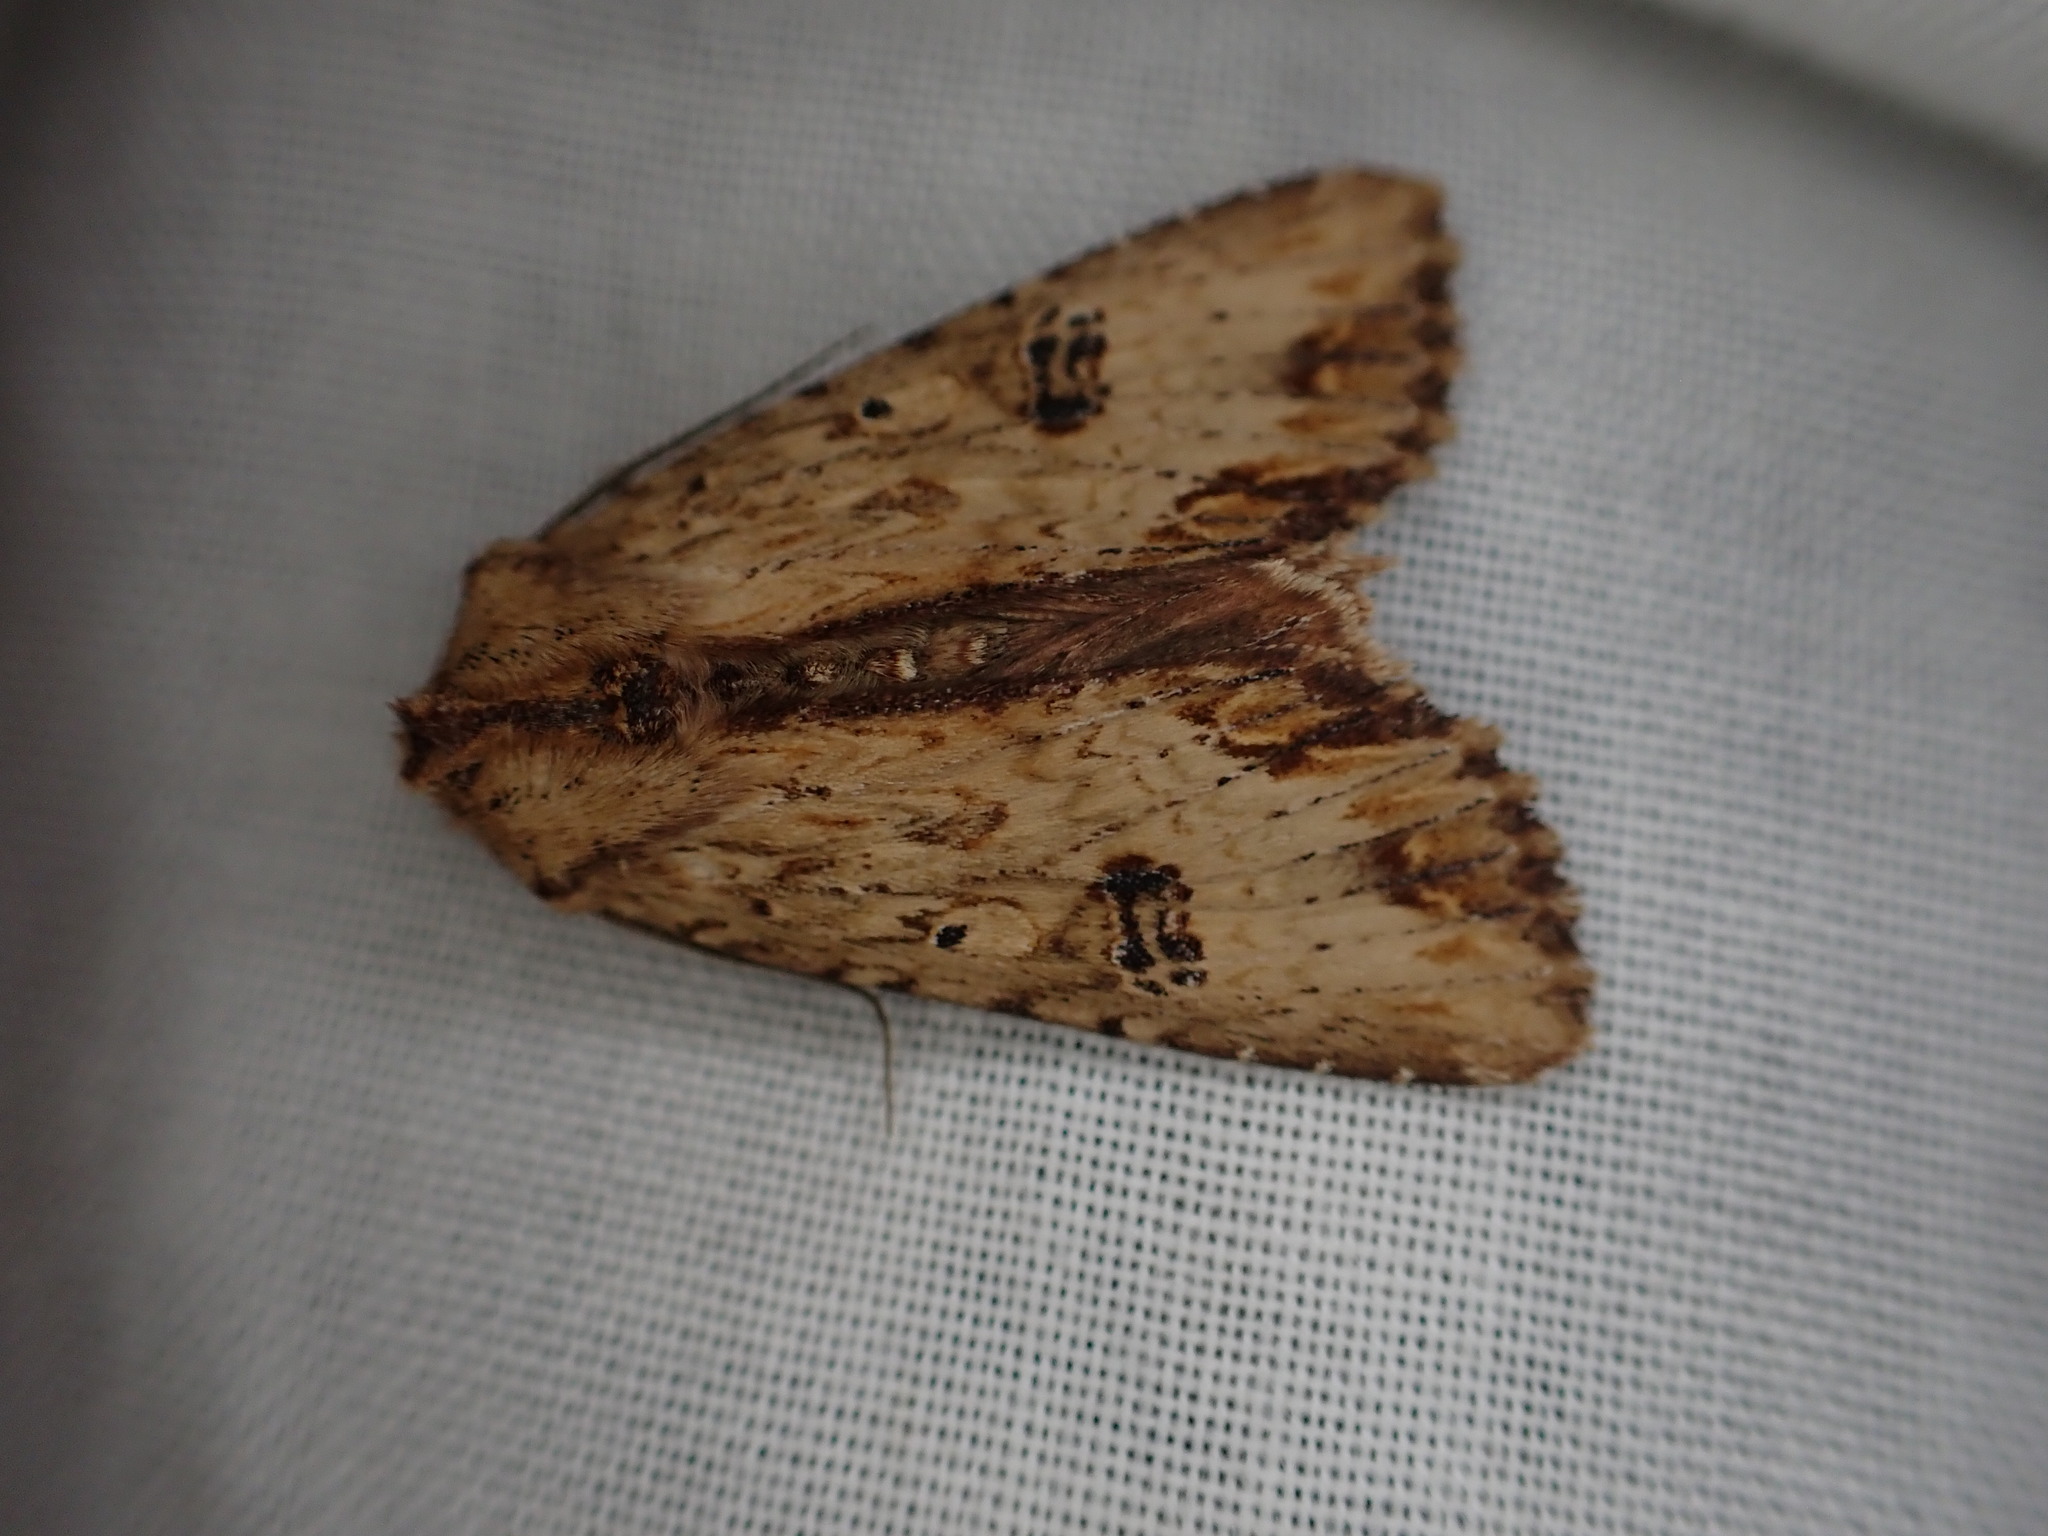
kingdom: Animalia
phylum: Arthropoda
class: Insecta
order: Lepidoptera
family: Noctuidae
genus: Ichneutica
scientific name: Ichneutica
